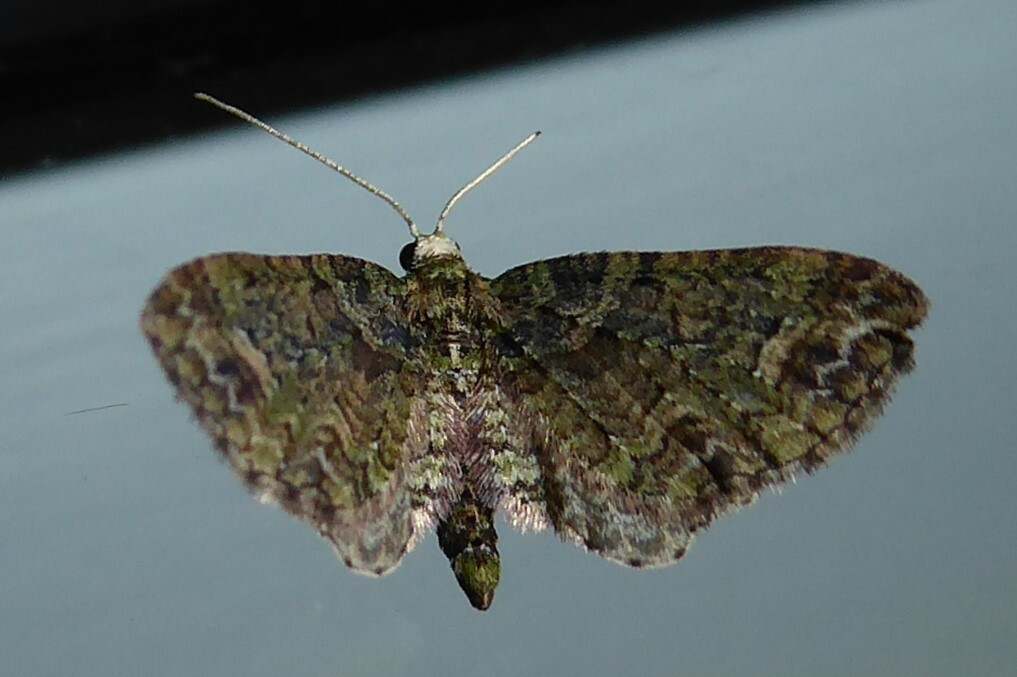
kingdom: Animalia
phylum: Arthropoda
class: Insecta
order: Lepidoptera
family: Geometridae
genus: Idaea
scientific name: Idaea mutanda
